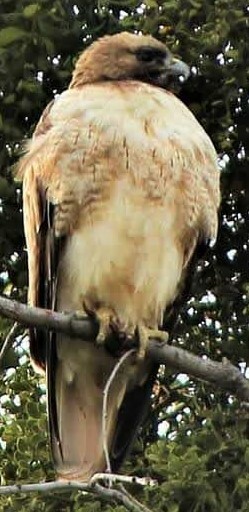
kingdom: Animalia
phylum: Chordata
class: Aves
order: Accipitriformes
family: Accipitridae
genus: Buteo
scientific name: Buteo jamaicensis
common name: Red-tailed hawk
